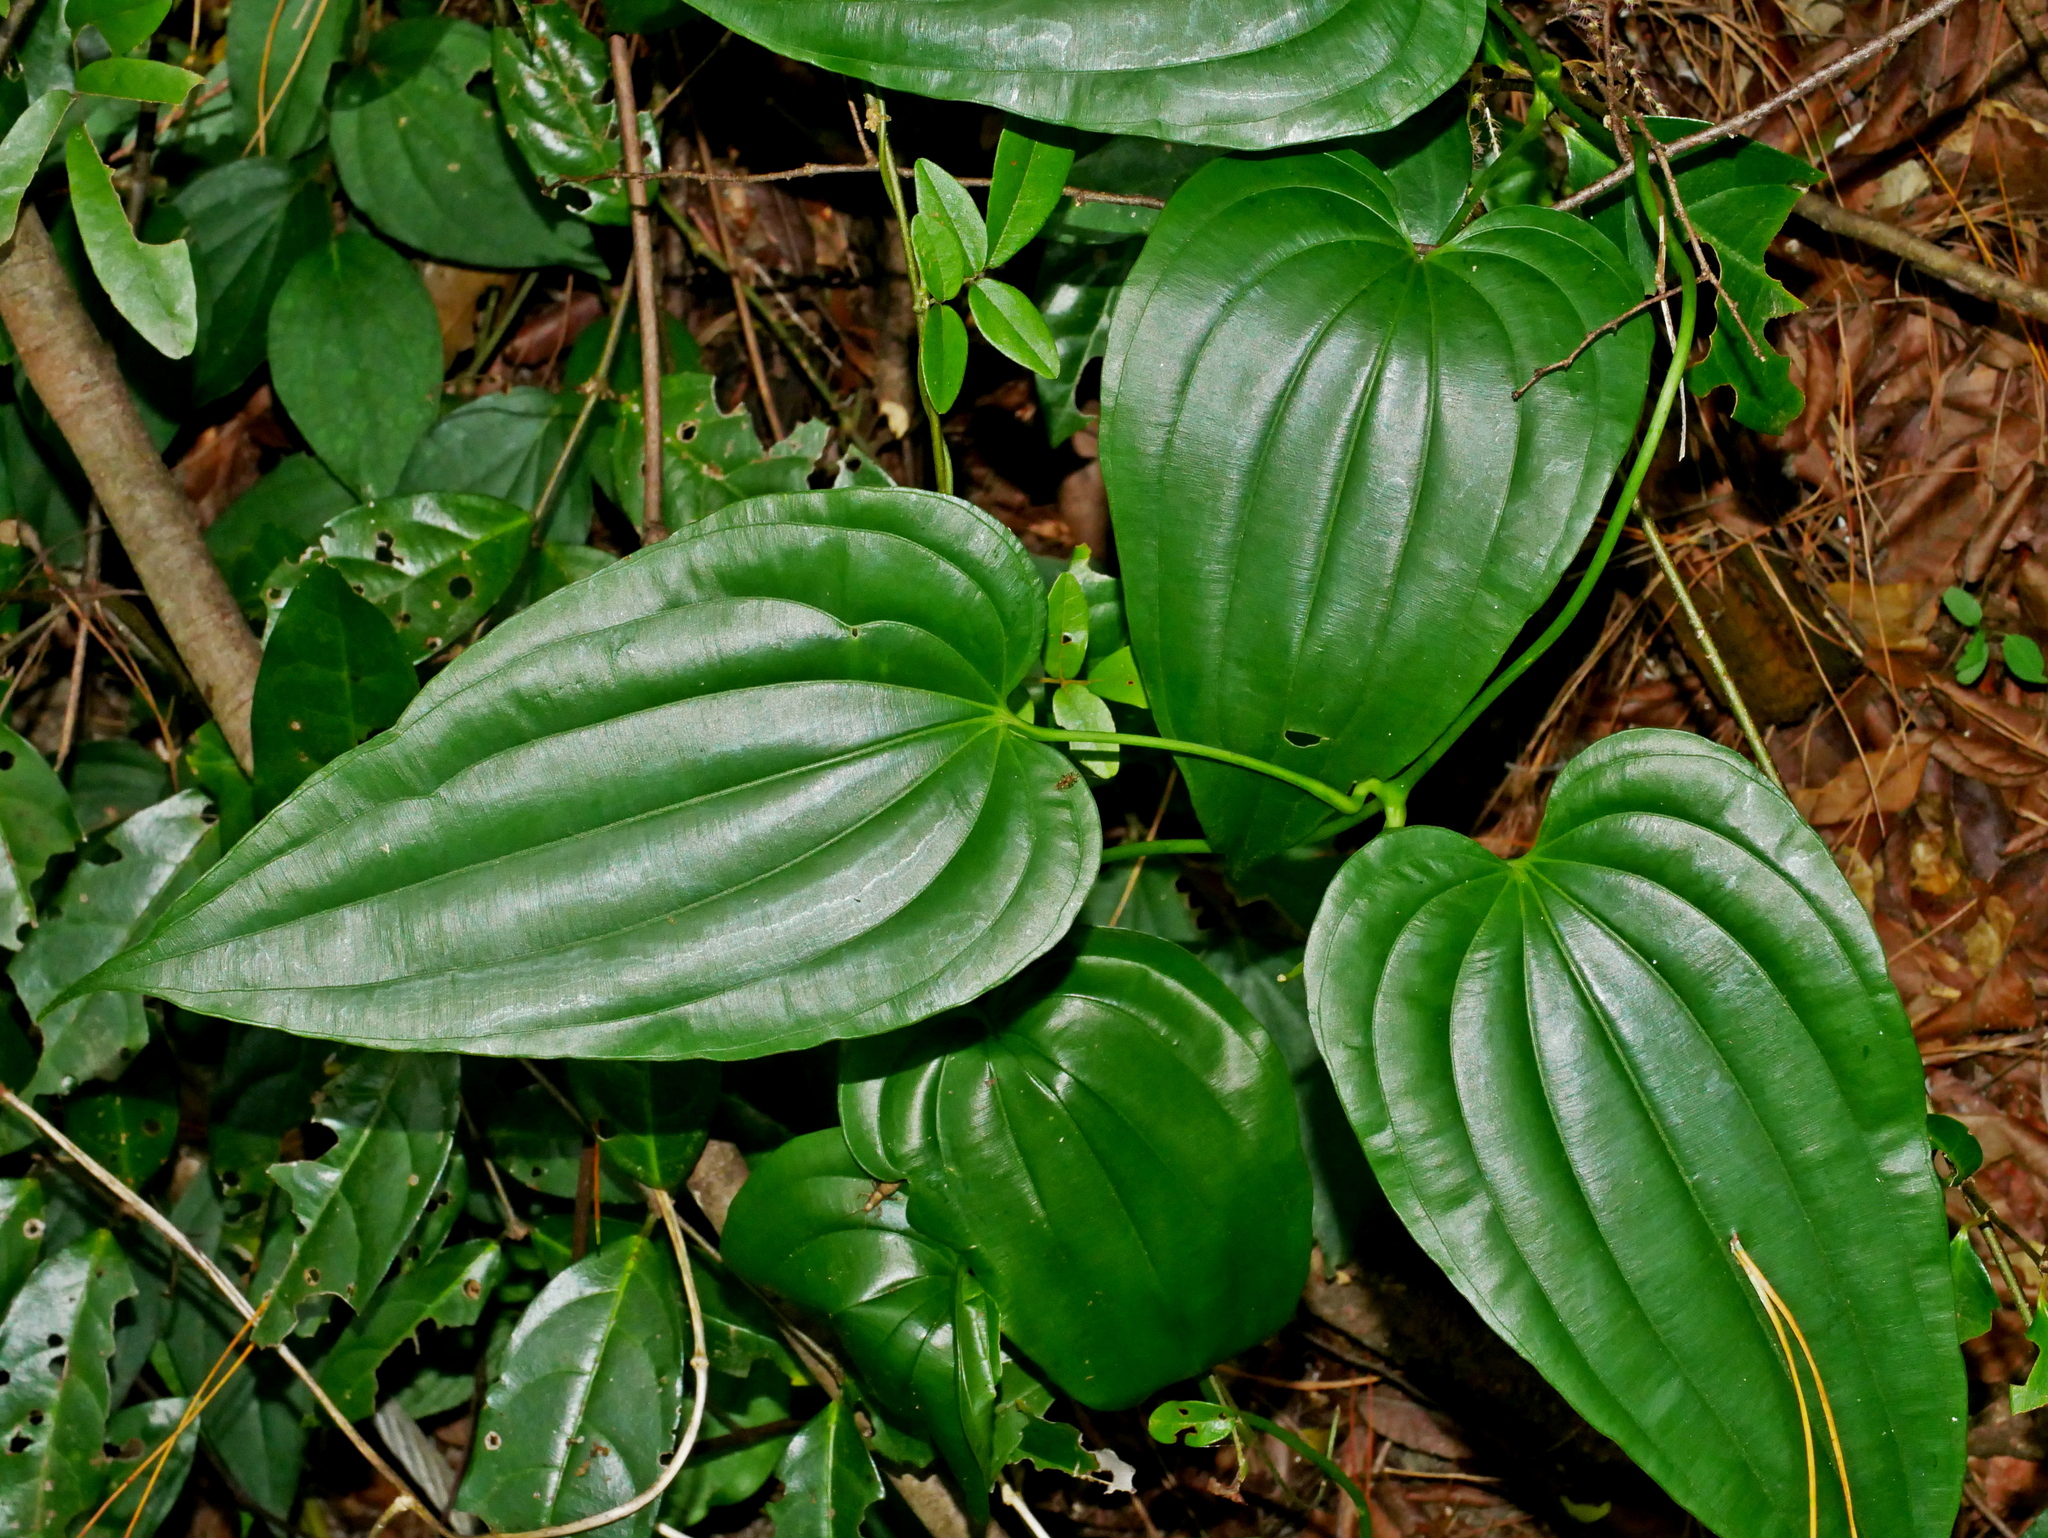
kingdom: Plantae
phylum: Tracheophyta
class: Liliopsida
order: Pandanales
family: Stemonaceae
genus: Stemona
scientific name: Stemona tuberosa
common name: Stemona
